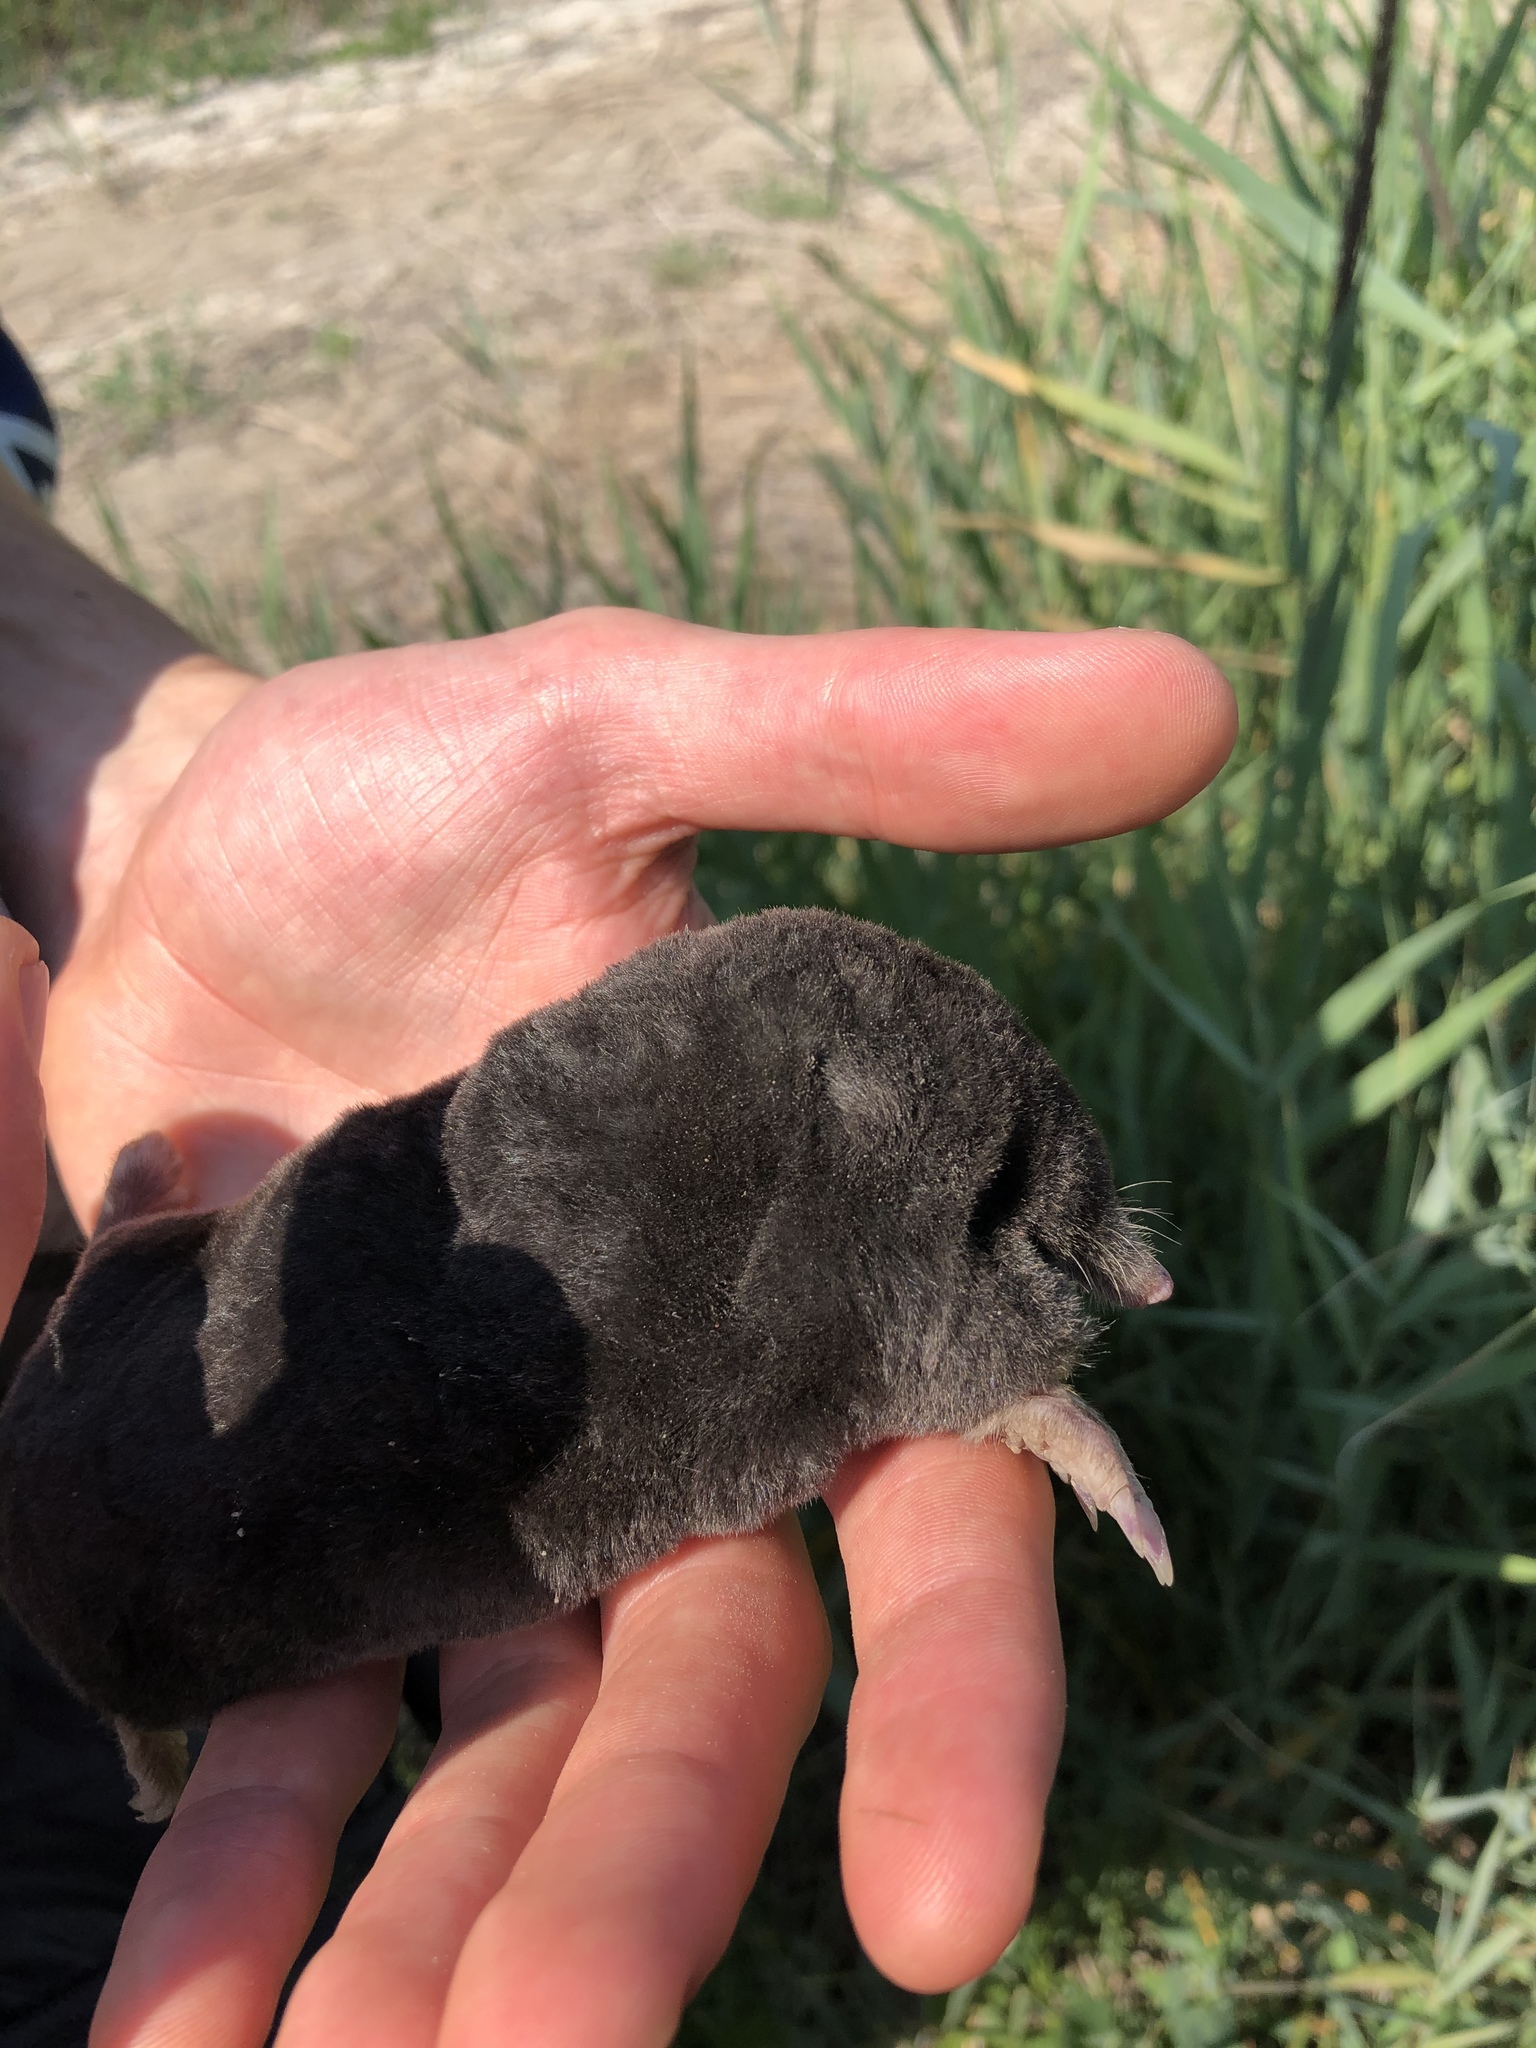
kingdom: Animalia
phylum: Chordata
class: Mammalia
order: Soricomorpha
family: Talpidae
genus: Talpa
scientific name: Talpa europaea
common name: European mole
